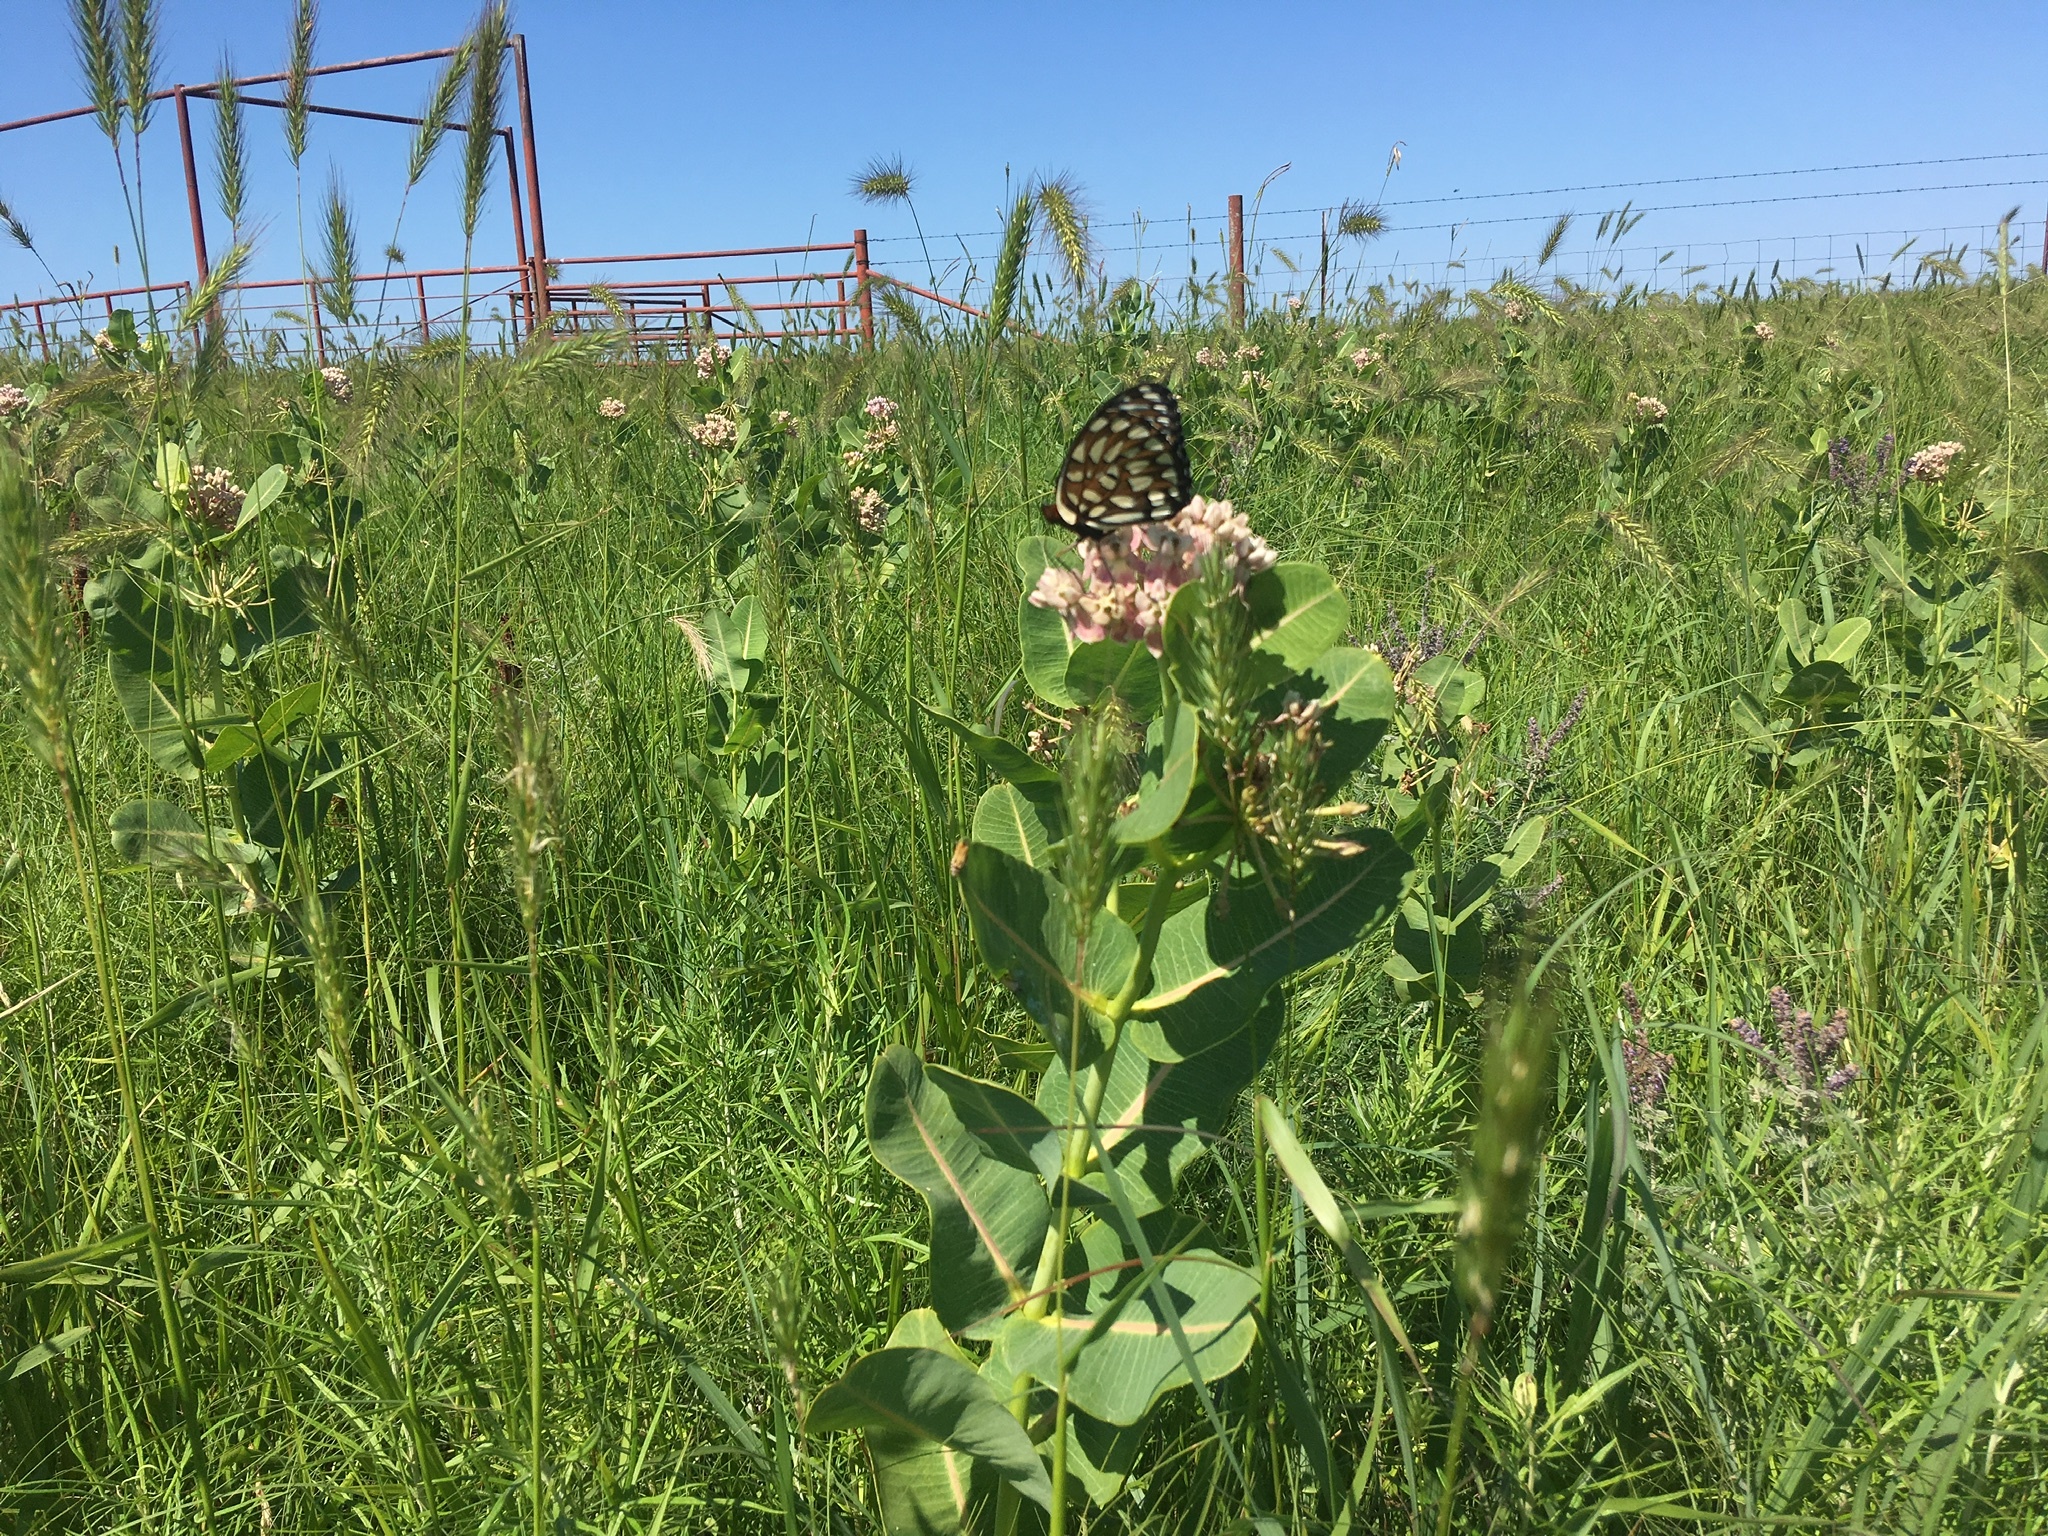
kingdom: Animalia
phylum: Arthropoda
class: Insecta
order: Lepidoptera
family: Nymphalidae
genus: Speyeria
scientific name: Speyeria idalia
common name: Regal fritillary
